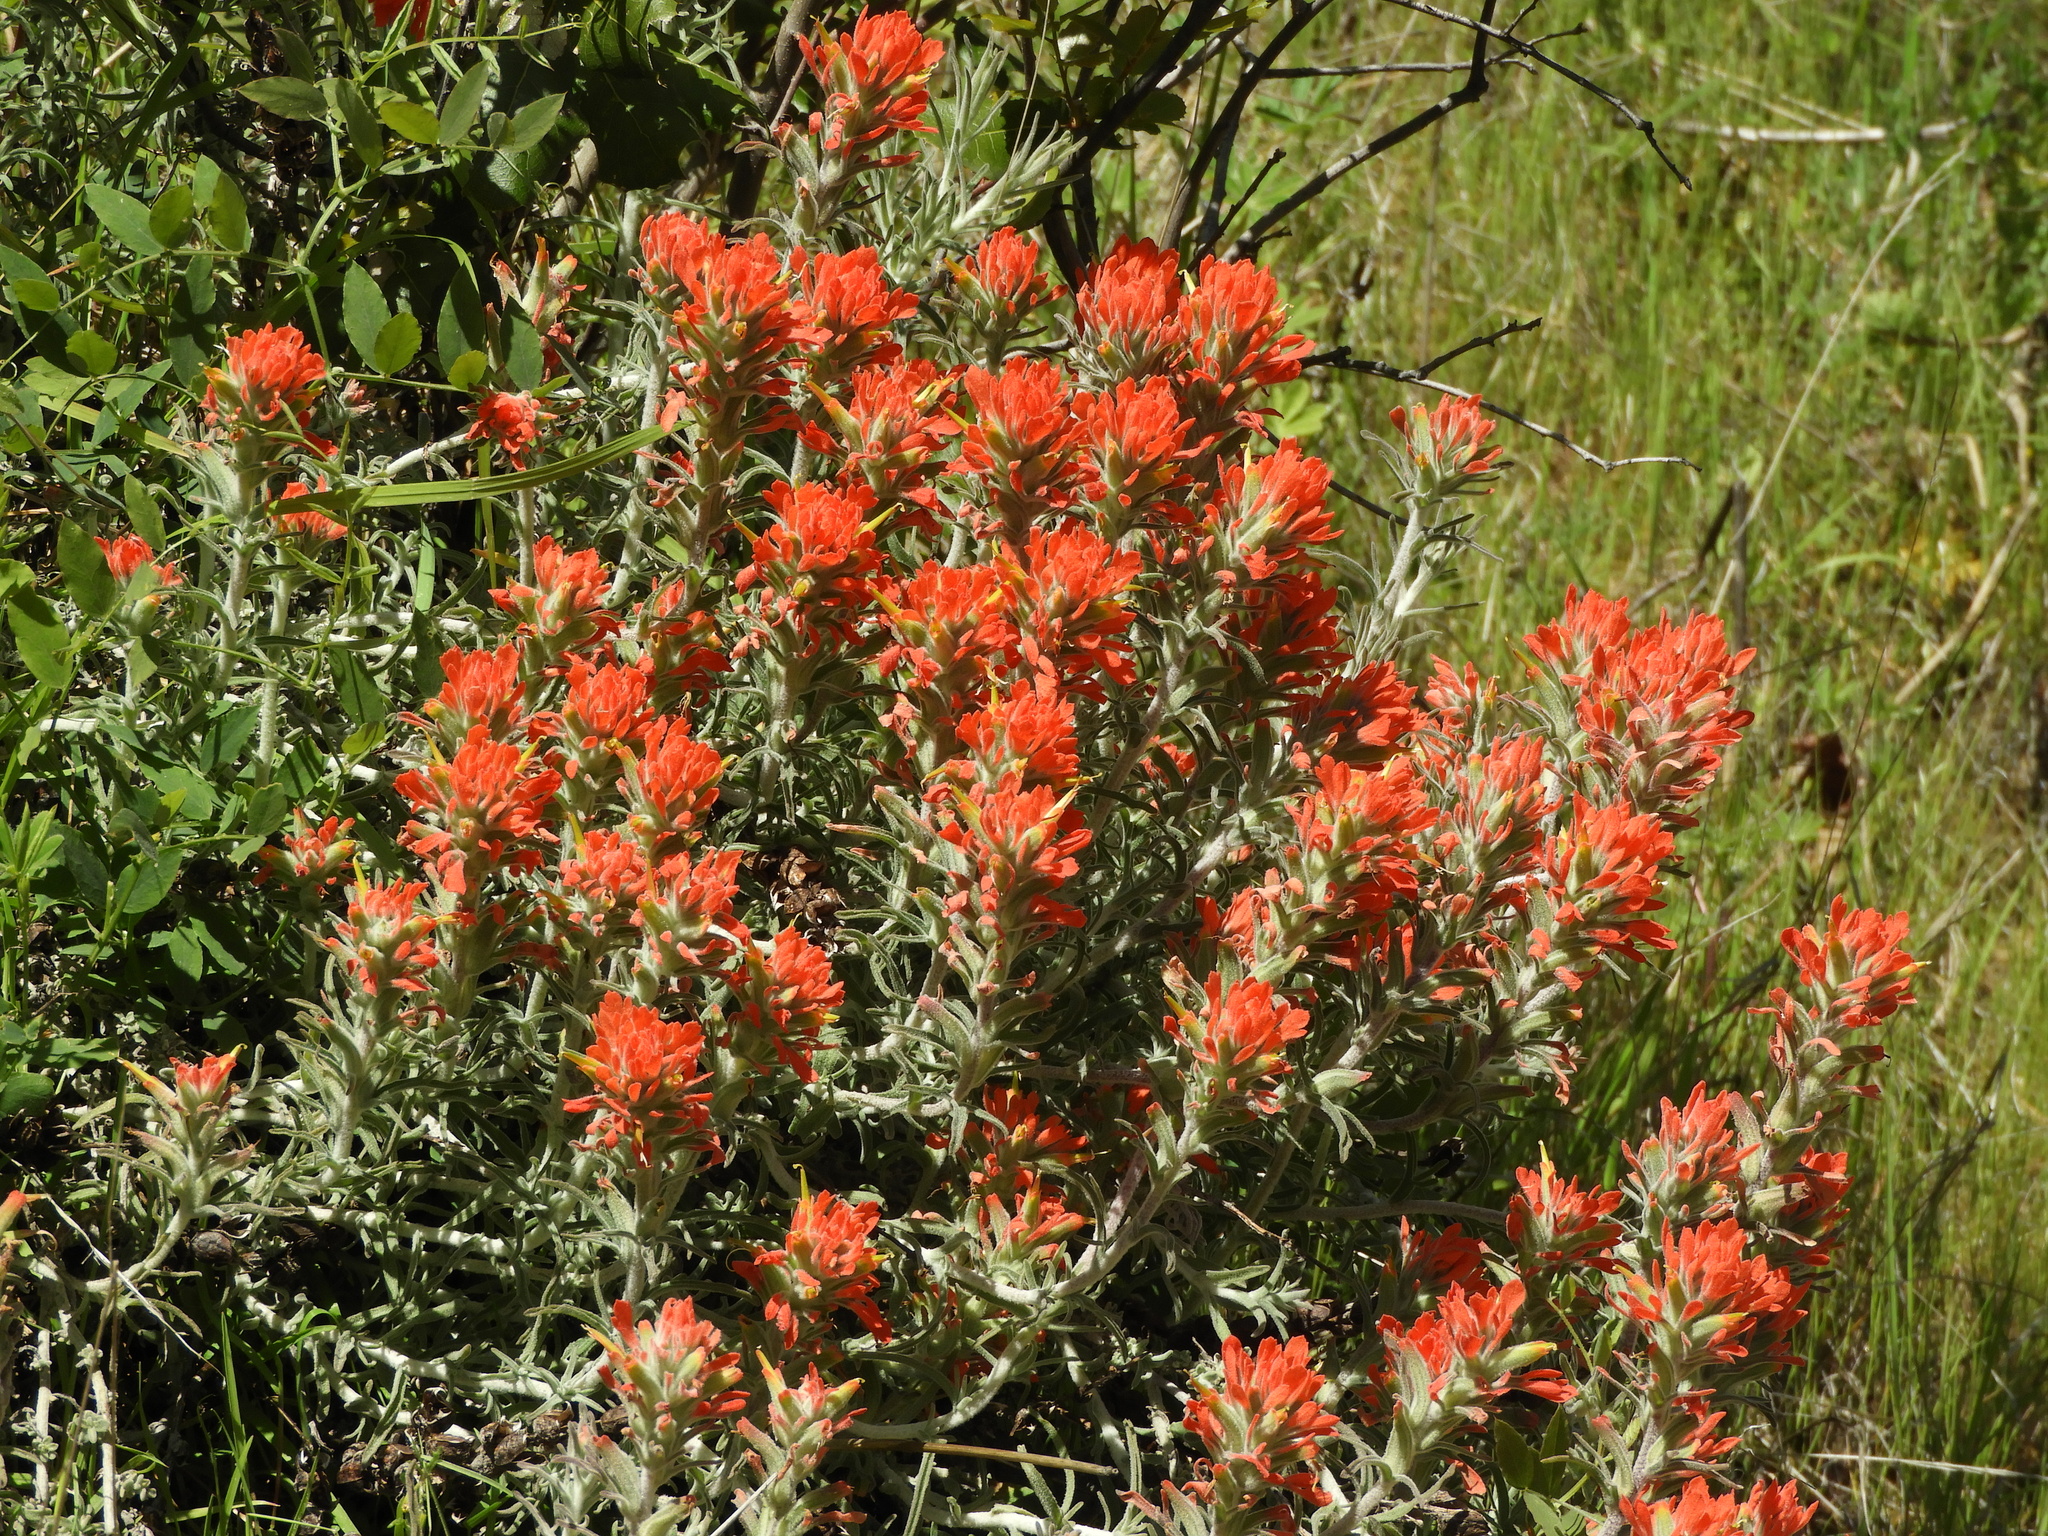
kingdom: Plantae
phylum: Tracheophyta
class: Magnoliopsida
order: Lamiales
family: Orobanchaceae
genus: Castilleja
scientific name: Castilleja foliolosa
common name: Woolly indian paintbrush
